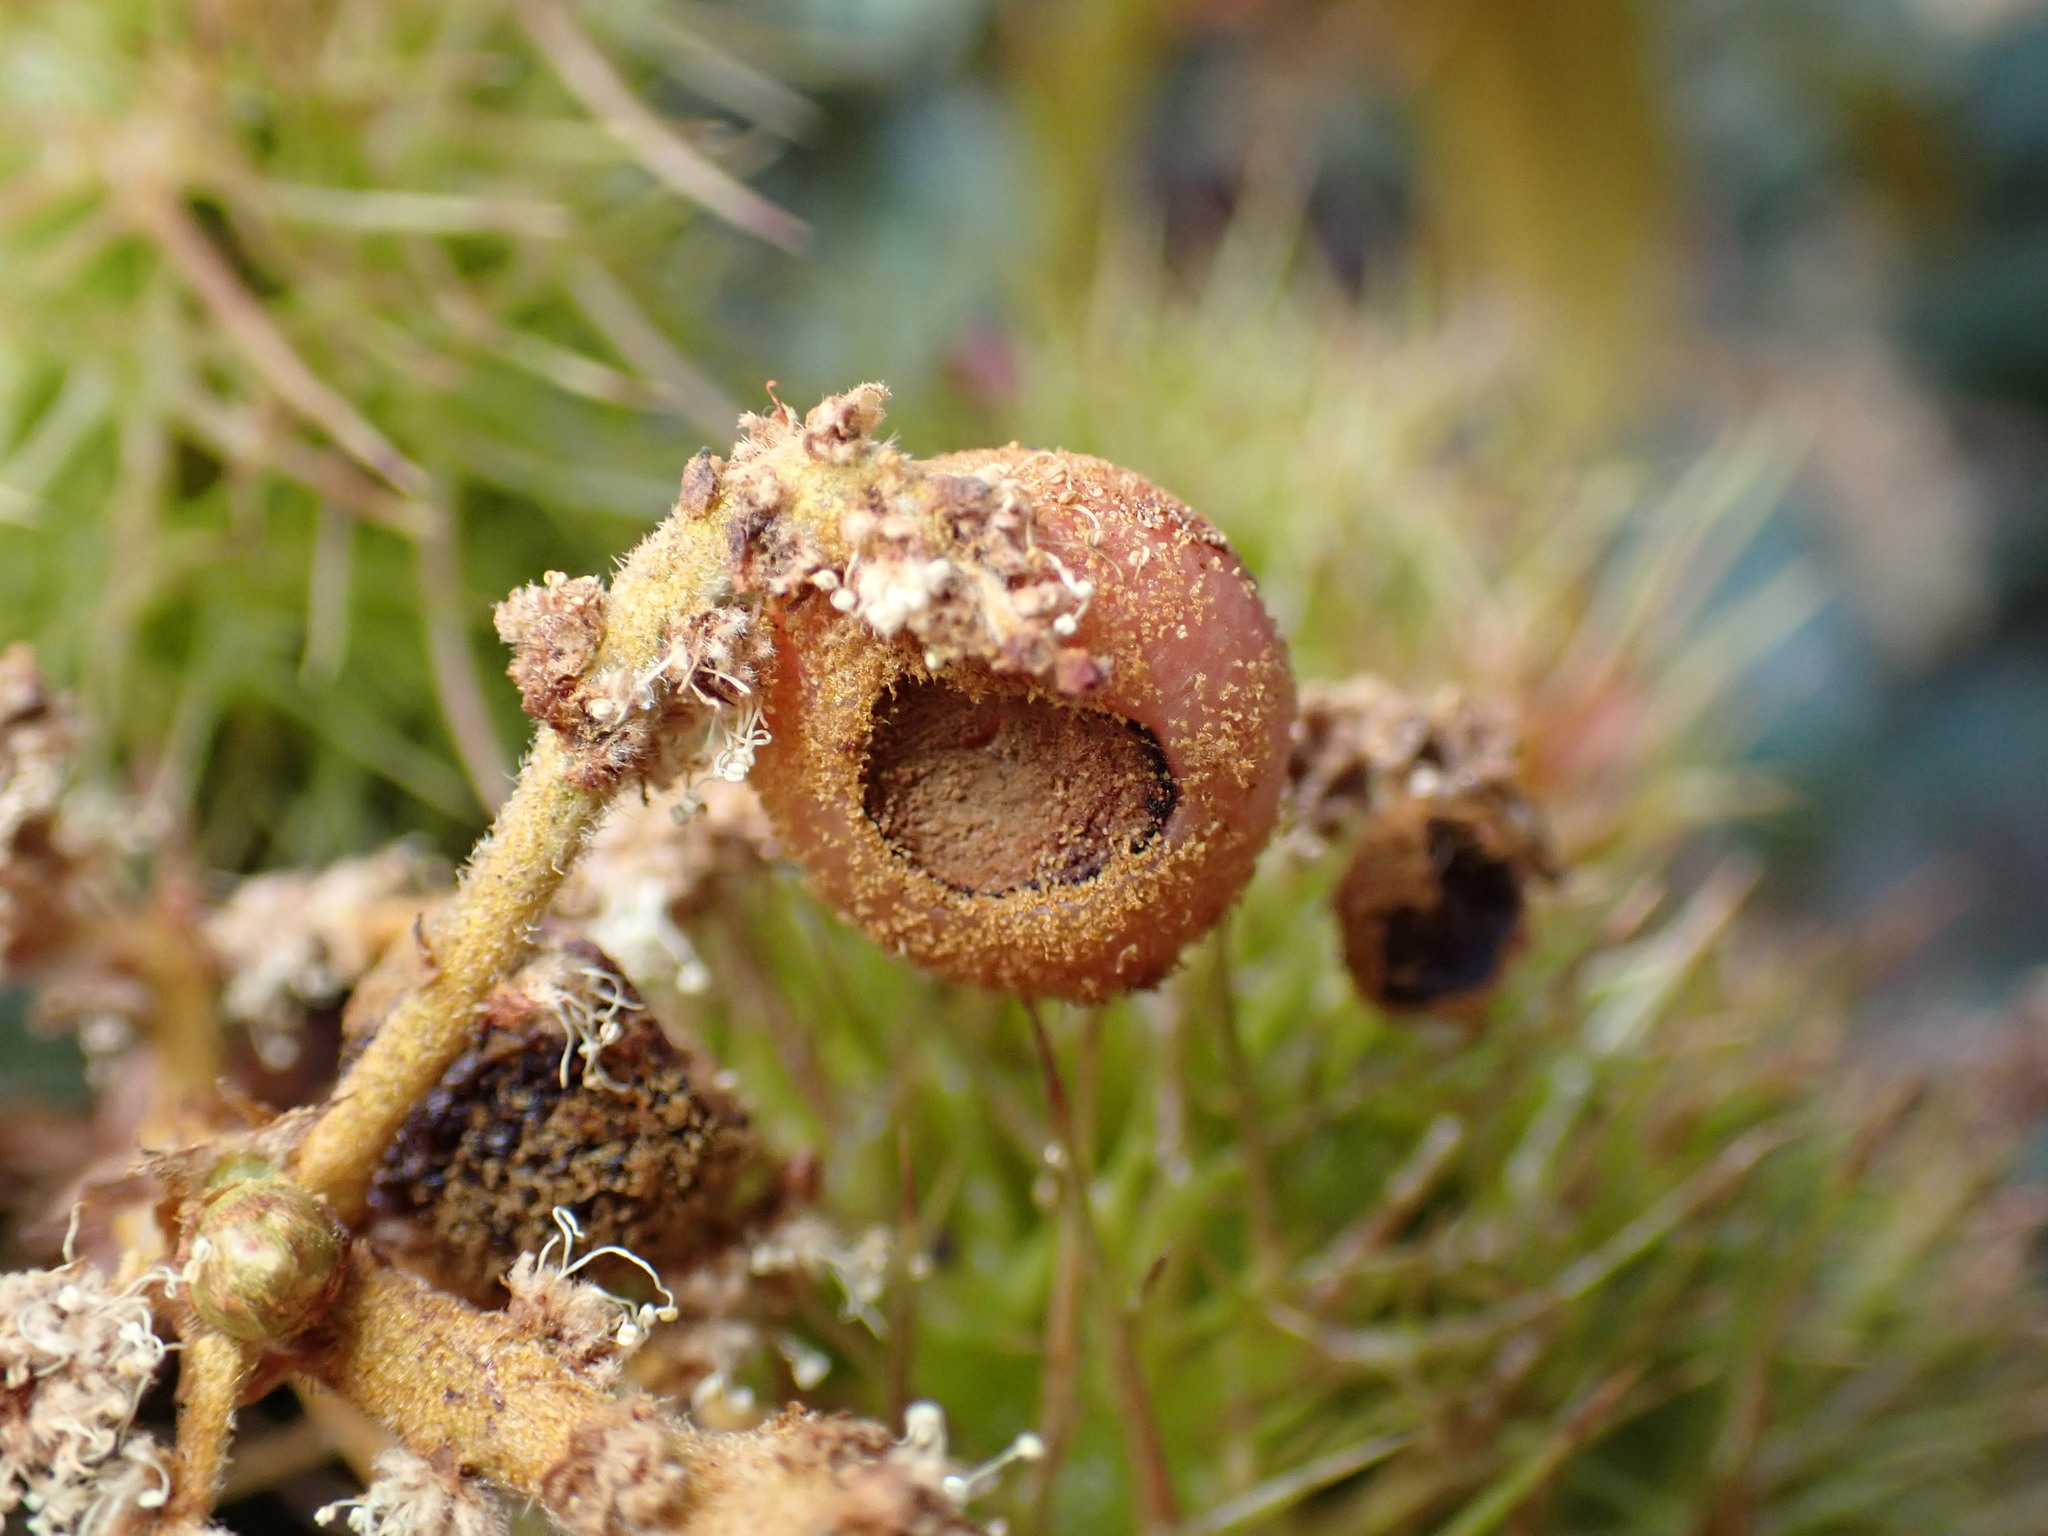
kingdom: Animalia
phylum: Arthropoda
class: Insecta
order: Hymenoptera
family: Cynipidae
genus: Synergus
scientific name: Synergus castanopsidis
